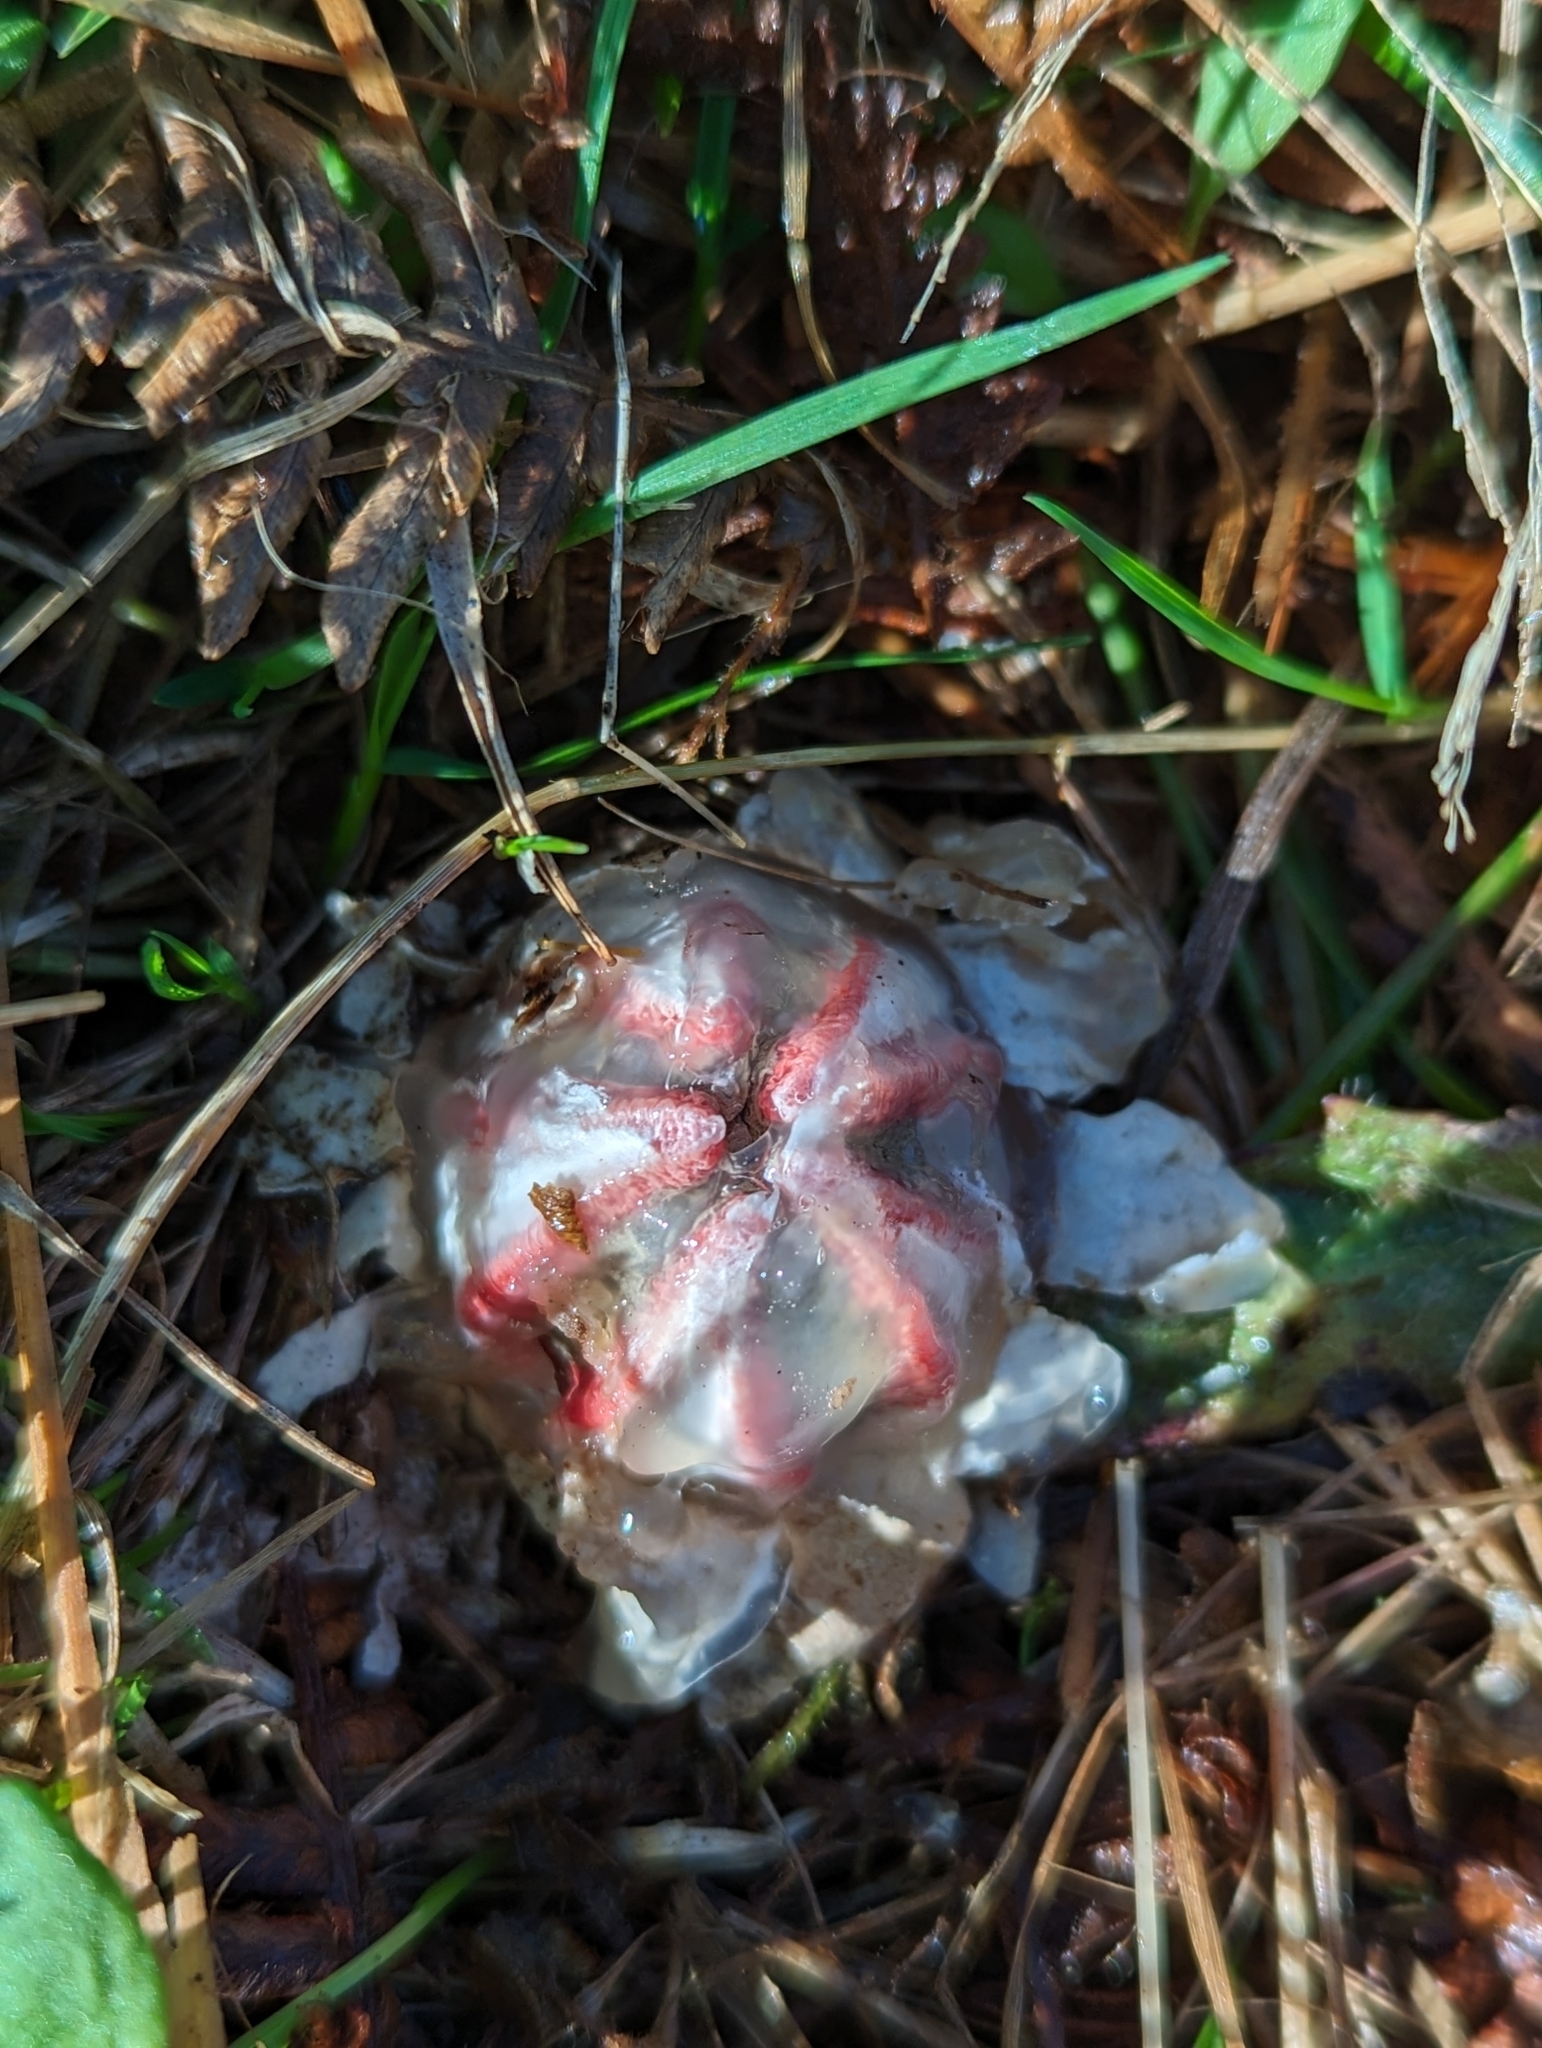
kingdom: Fungi
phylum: Basidiomycota
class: Agaricomycetes
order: Phallales
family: Phallaceae
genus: Clathrus
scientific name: Clathrus archeri
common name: Devil's fingers
